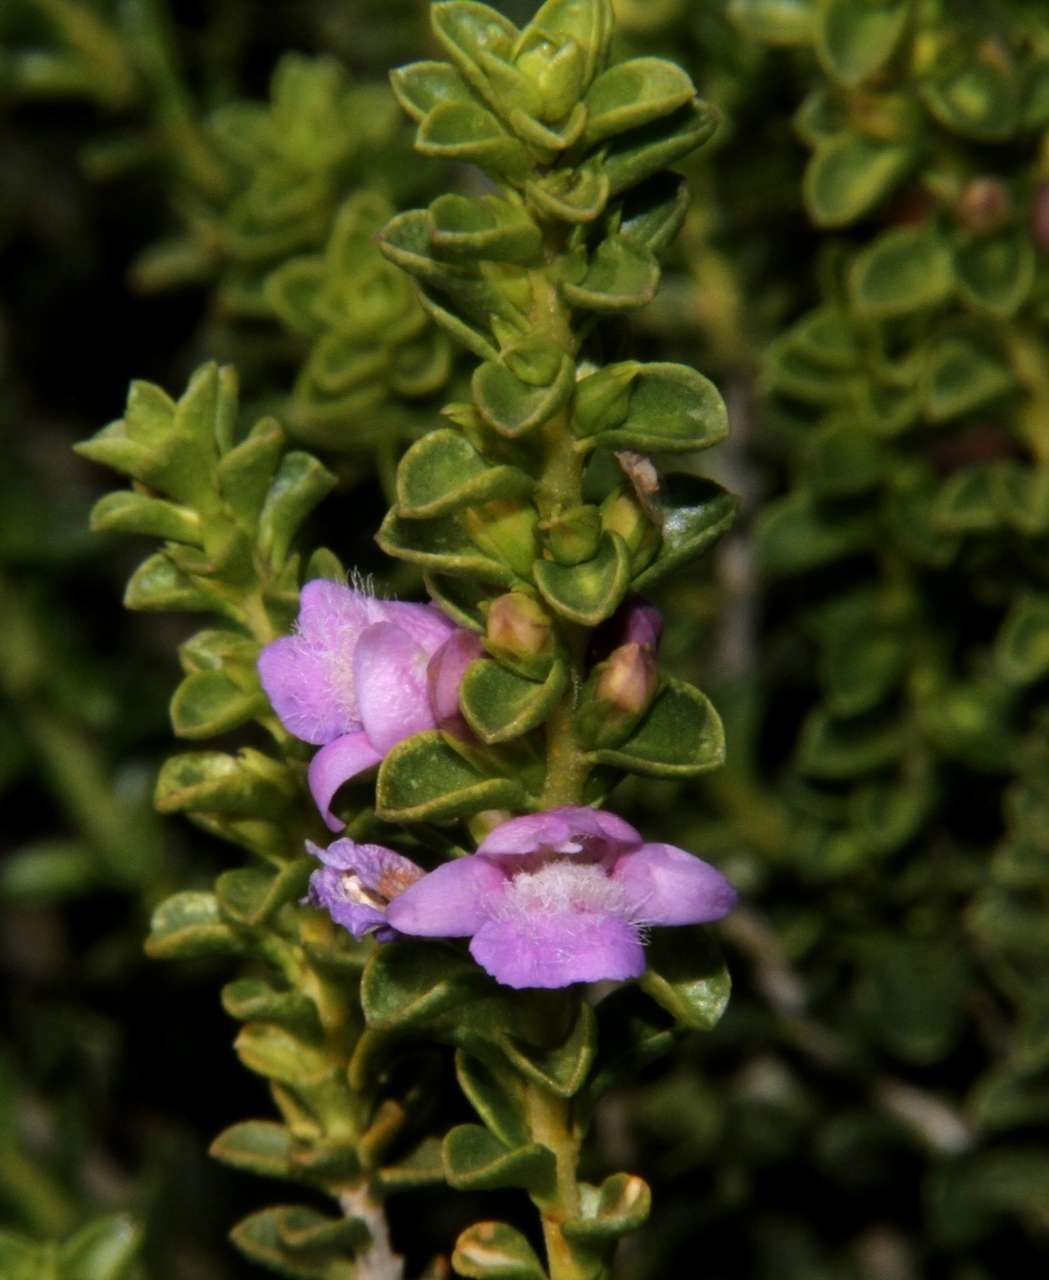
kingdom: Plantae
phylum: Tracheophyta
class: Magnoliopsida
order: Lamiales
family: Scrophulariaceae
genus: Eremophila
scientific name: Eremophila crassifolia
